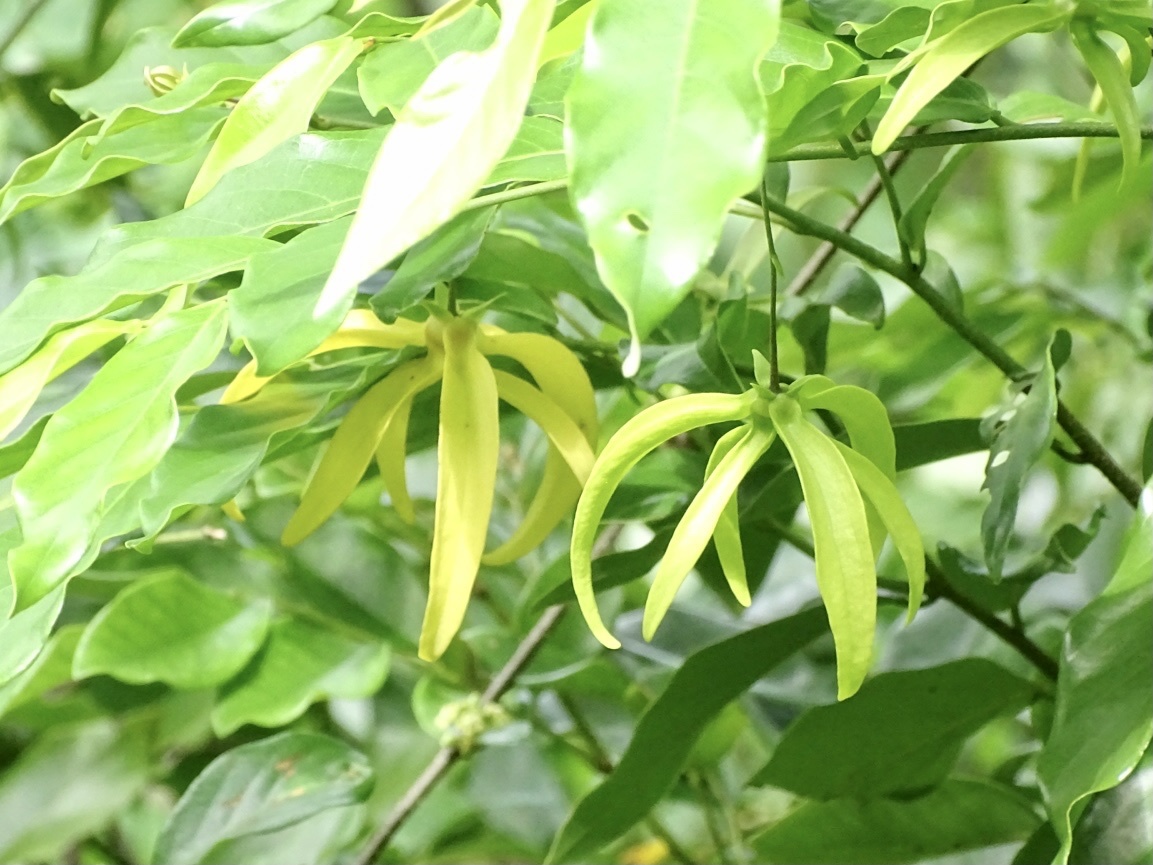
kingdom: Plantae
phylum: Tracheophyta
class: Magnoliopsida
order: Magnoliales
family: Annonaceae
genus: Desmos
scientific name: Desmos chinensis
